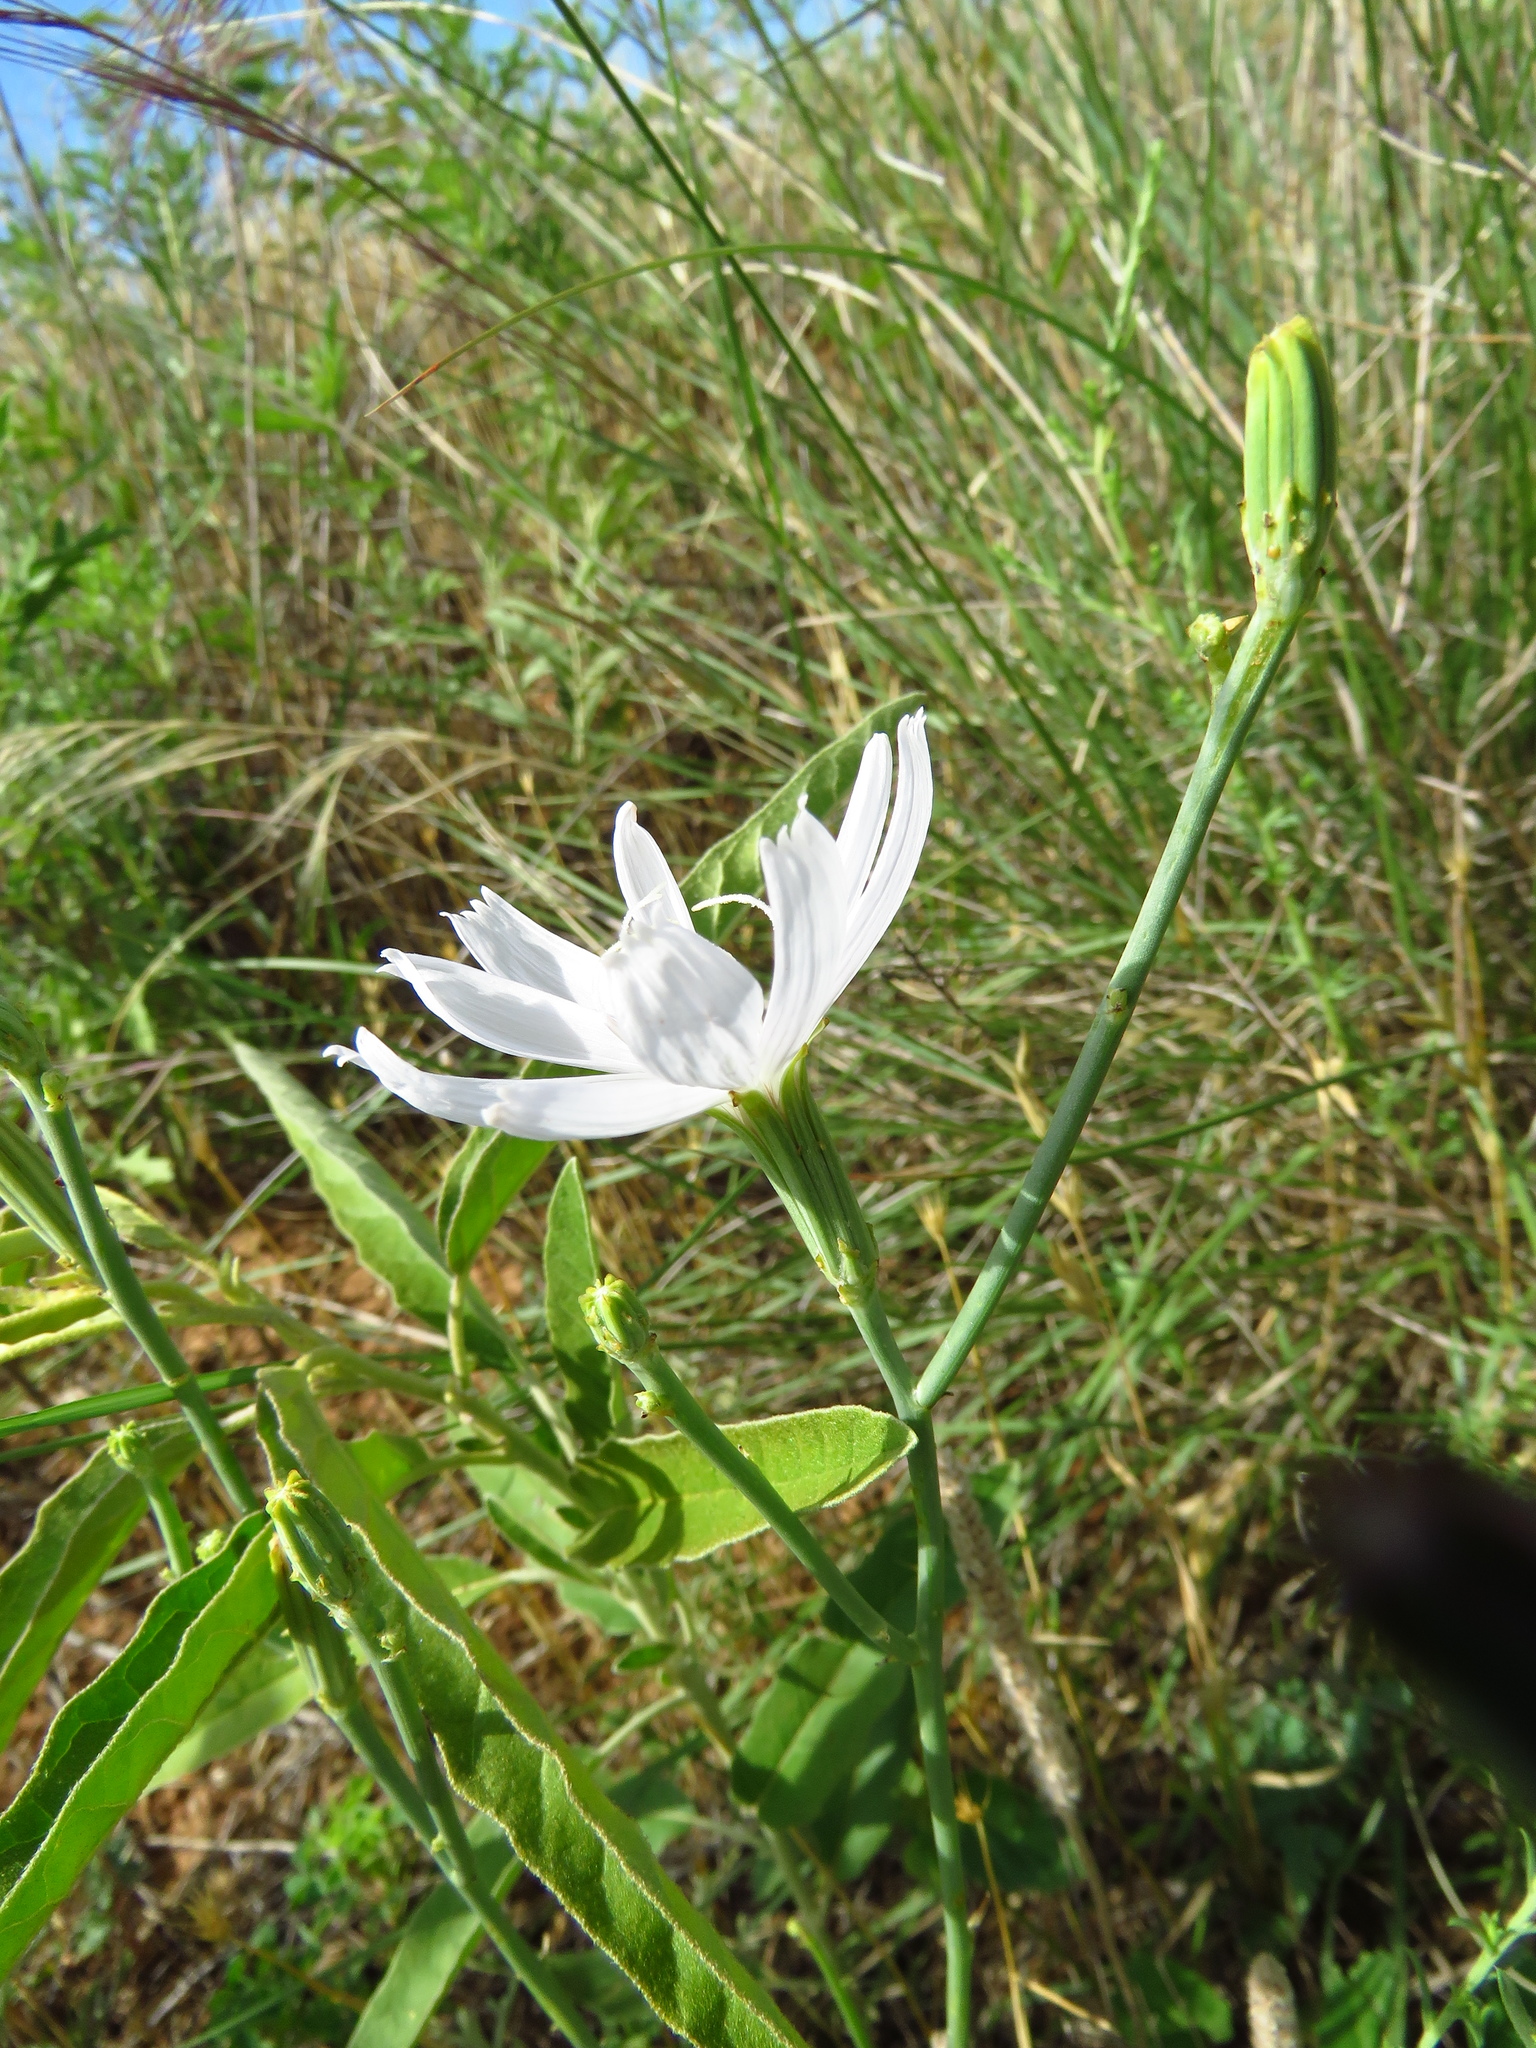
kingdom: Plantae
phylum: Tracheophyta
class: Magnoliopsida
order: Asterales
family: Asteraceae
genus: Lygodesmia
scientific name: Lygodesmia texana
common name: Texas skeleton-plant
